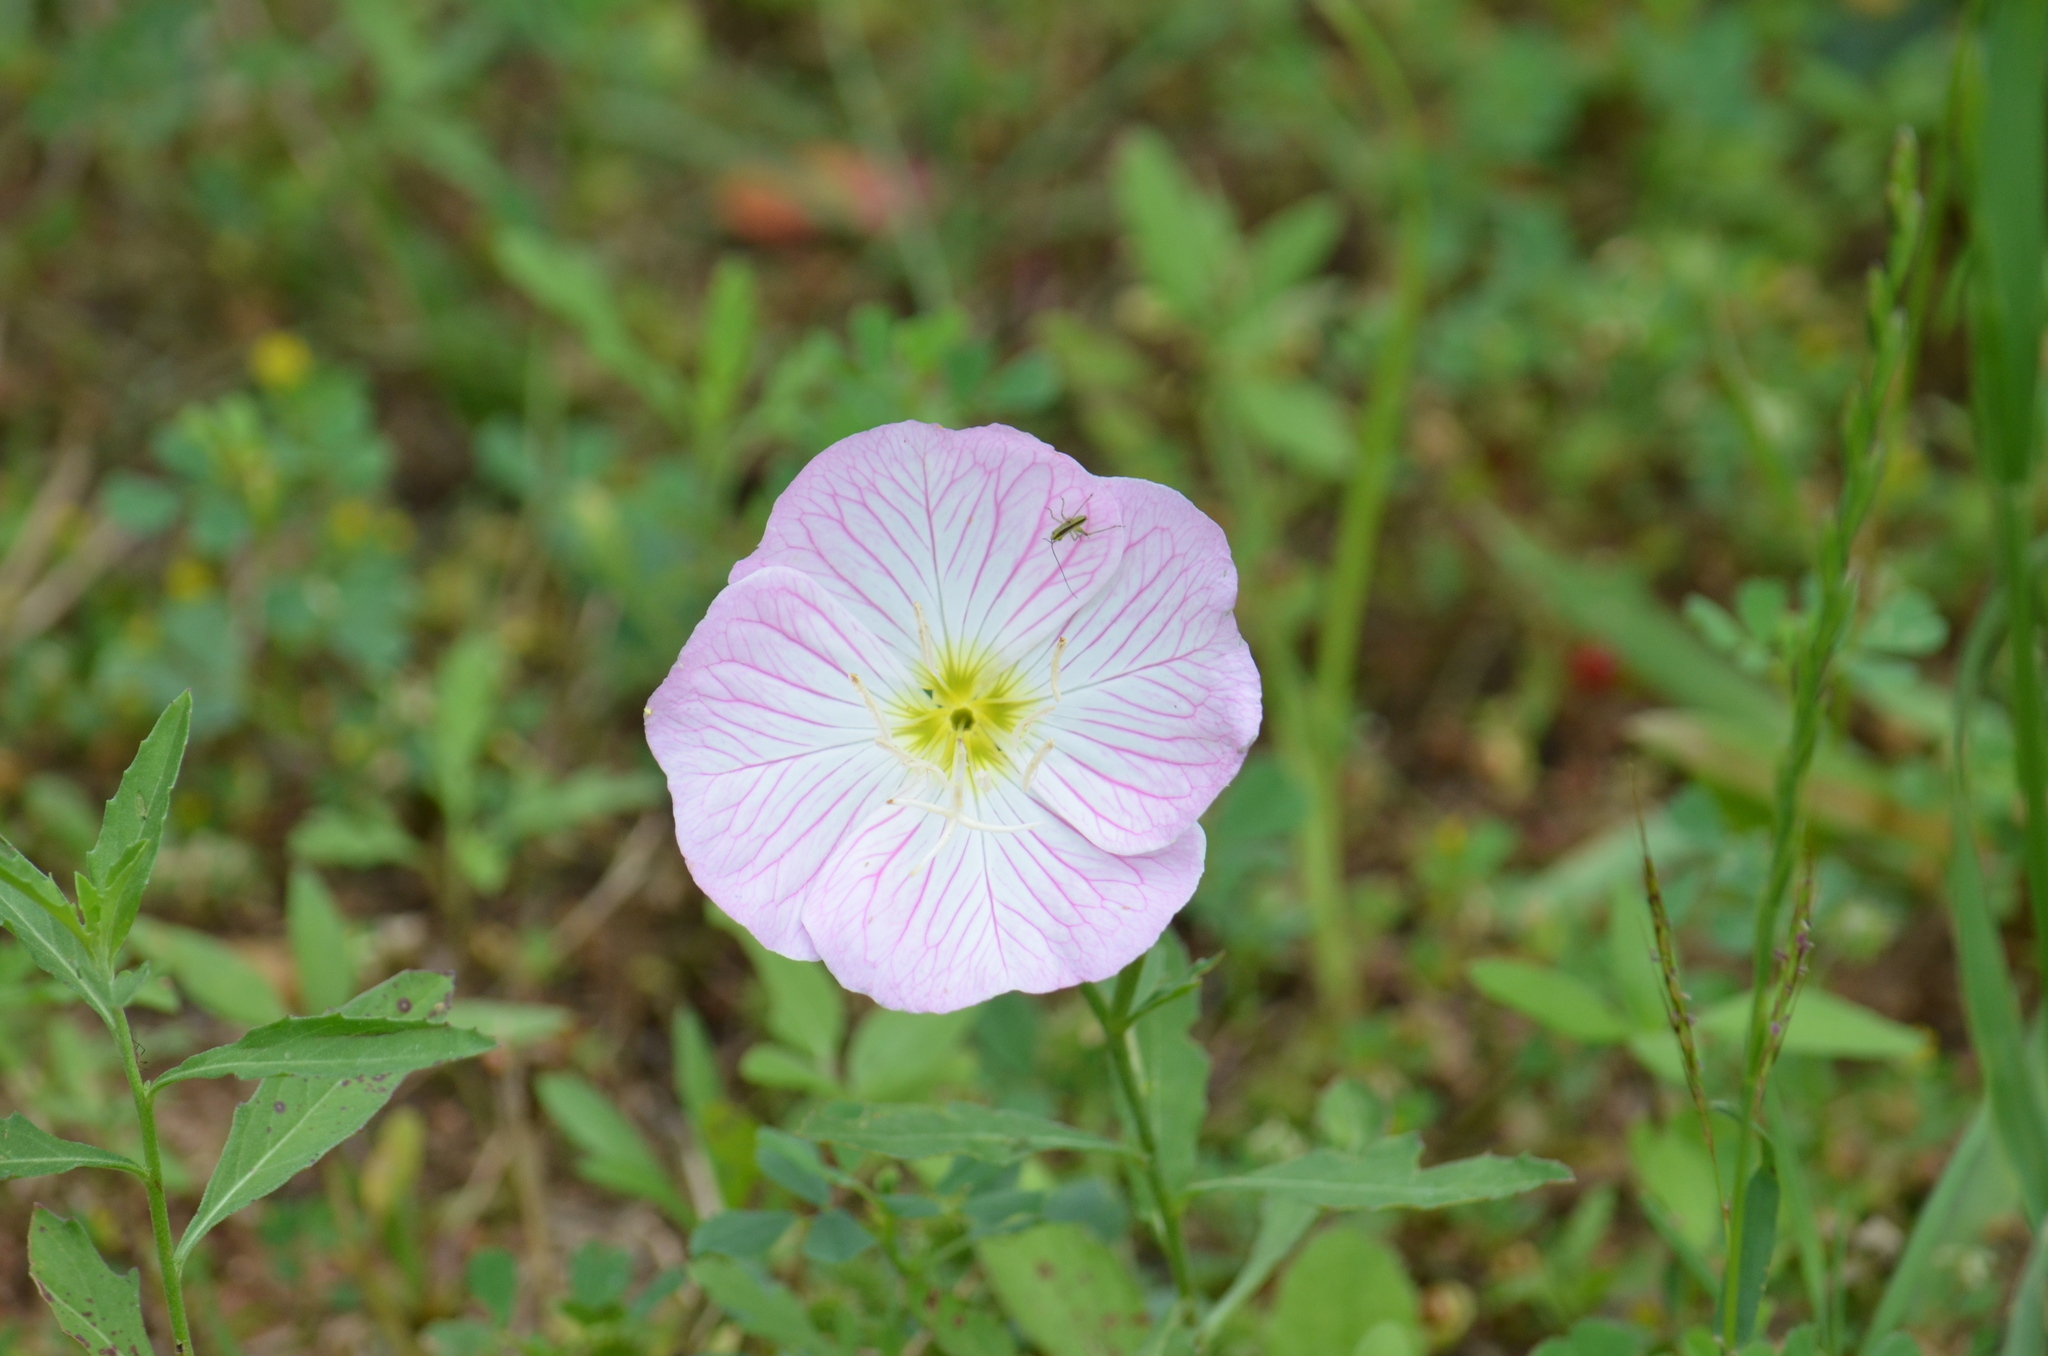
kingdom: Plantae
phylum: Tracheophyta
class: Magnoliopsida
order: Myrtales
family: Onagraceae
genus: Oenothera
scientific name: Oenothera speciosa
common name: White evening-primrose
